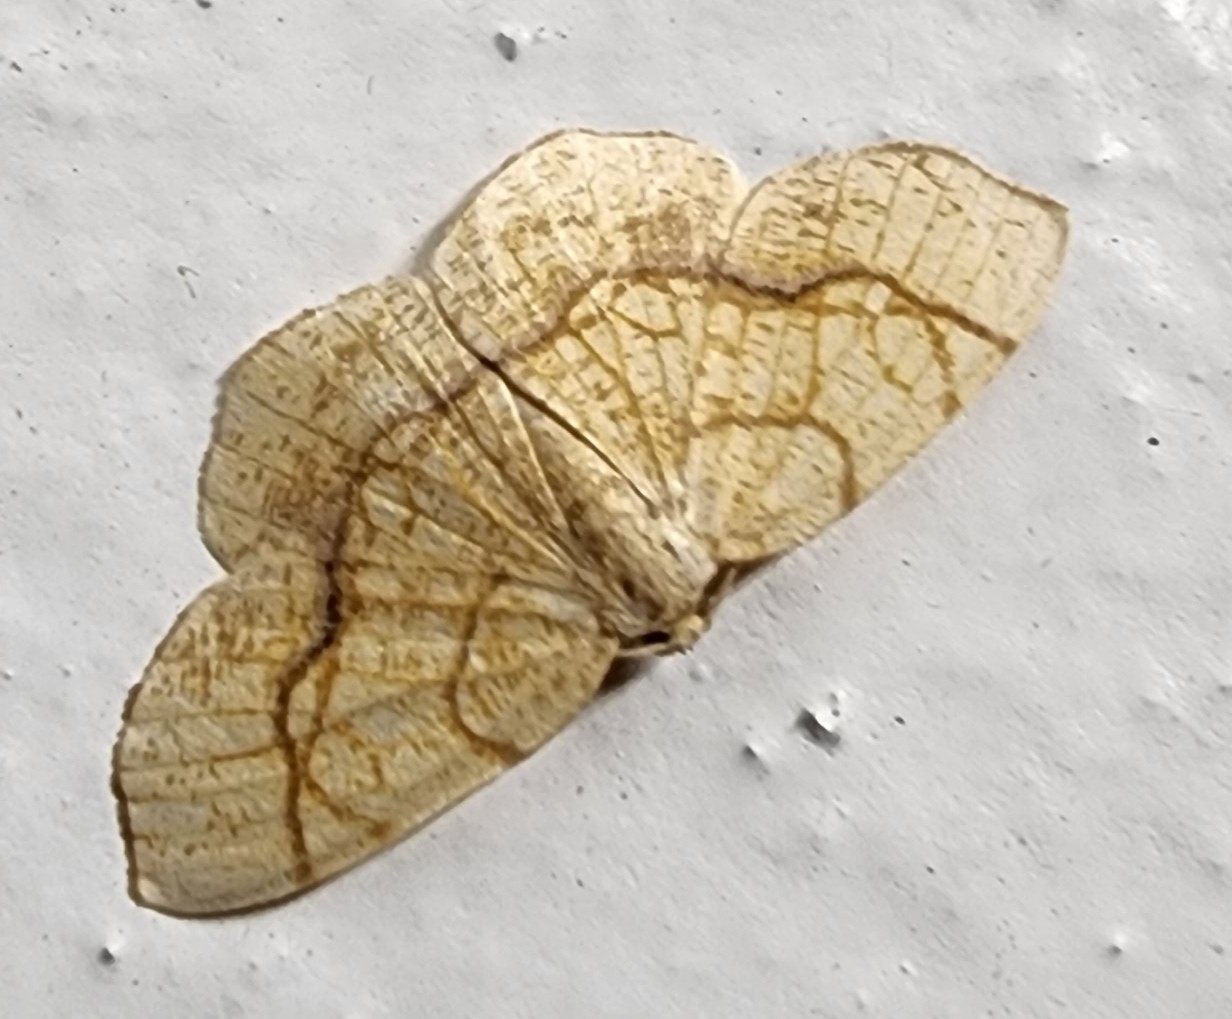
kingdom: Animalia
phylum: Arthropoda
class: Insecta
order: Lepidoptera
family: Geometridae
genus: Nematocampa
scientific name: Nematocampa resistaria
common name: Horned spanworm moth
